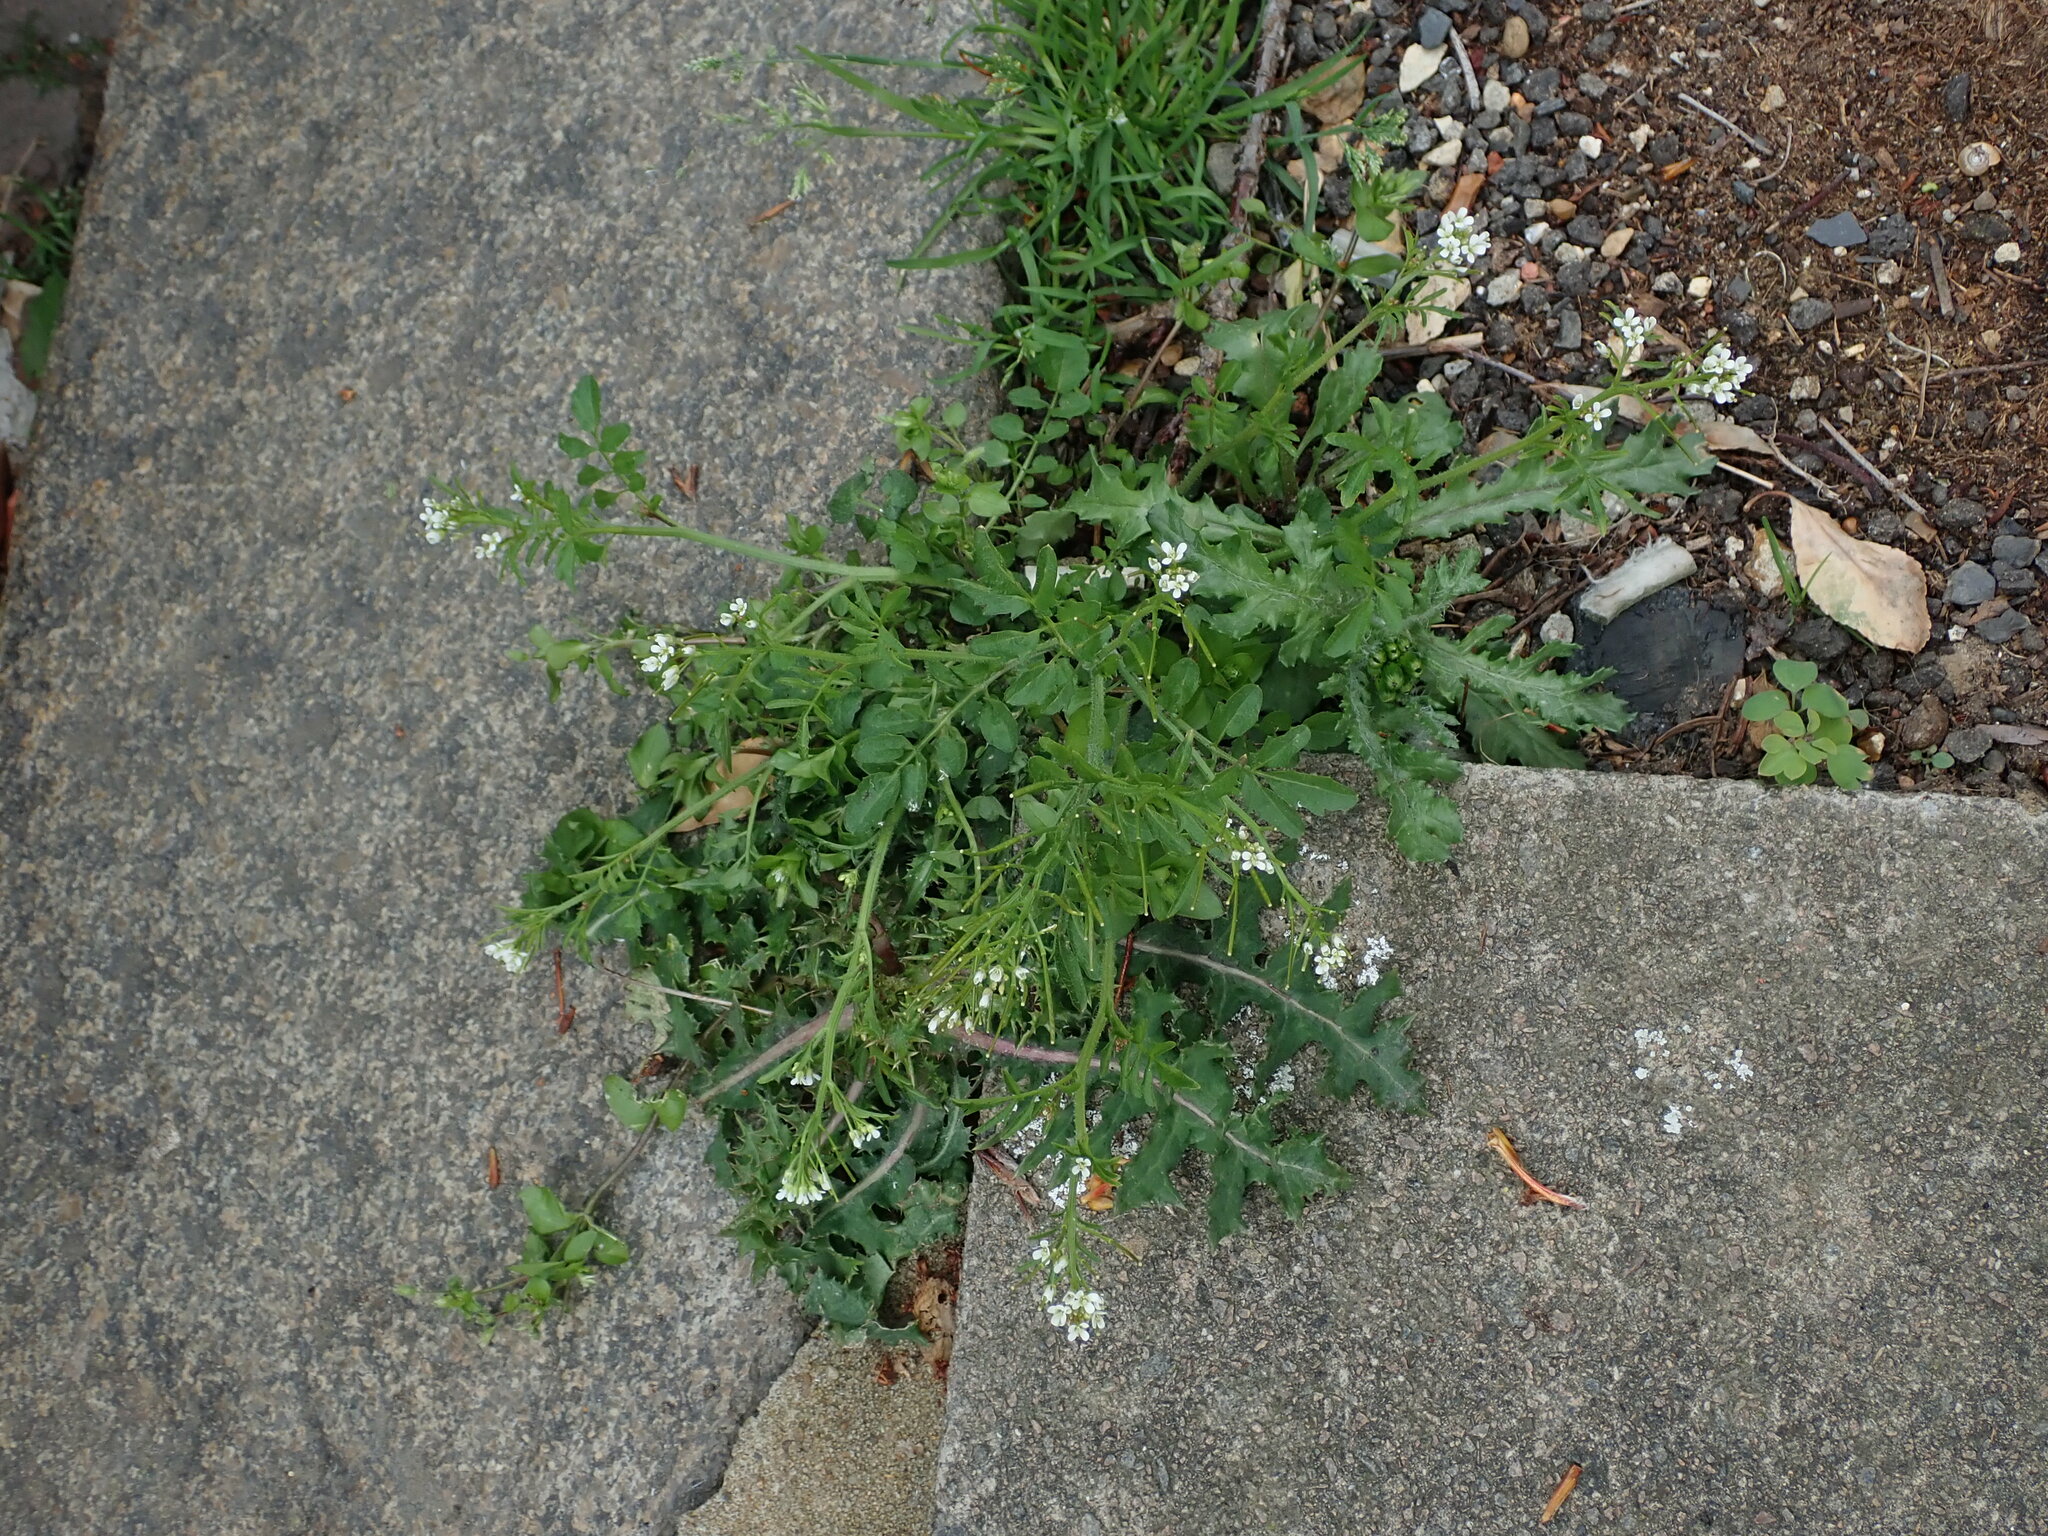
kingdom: Plantae
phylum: Tracheophyta
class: Magnoliopsida
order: Brassicales
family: Brassicaceae
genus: Cardamine
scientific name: Cardamine flexuosa
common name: Woodland bittercress
